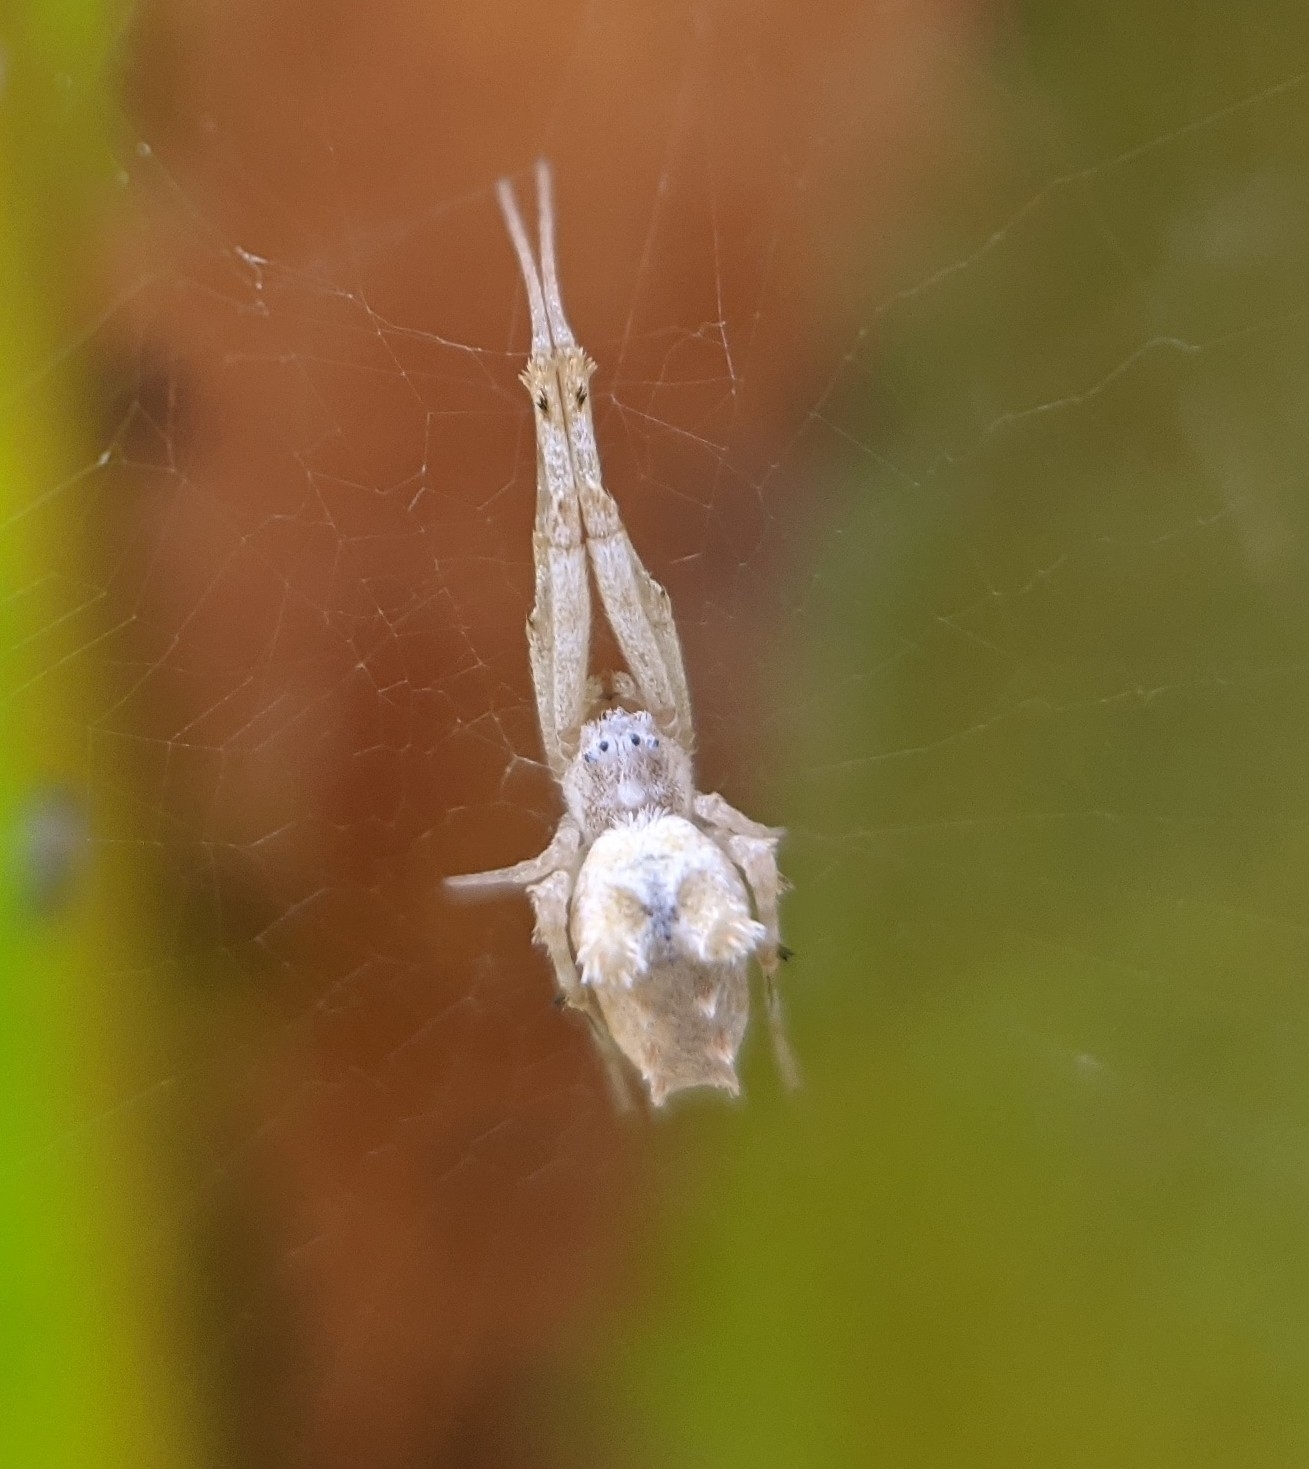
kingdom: Animalia
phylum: Arthropoda
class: Arachnida
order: Araneae
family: Uloboridae
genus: Uloborus
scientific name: Uloborus glomosus
